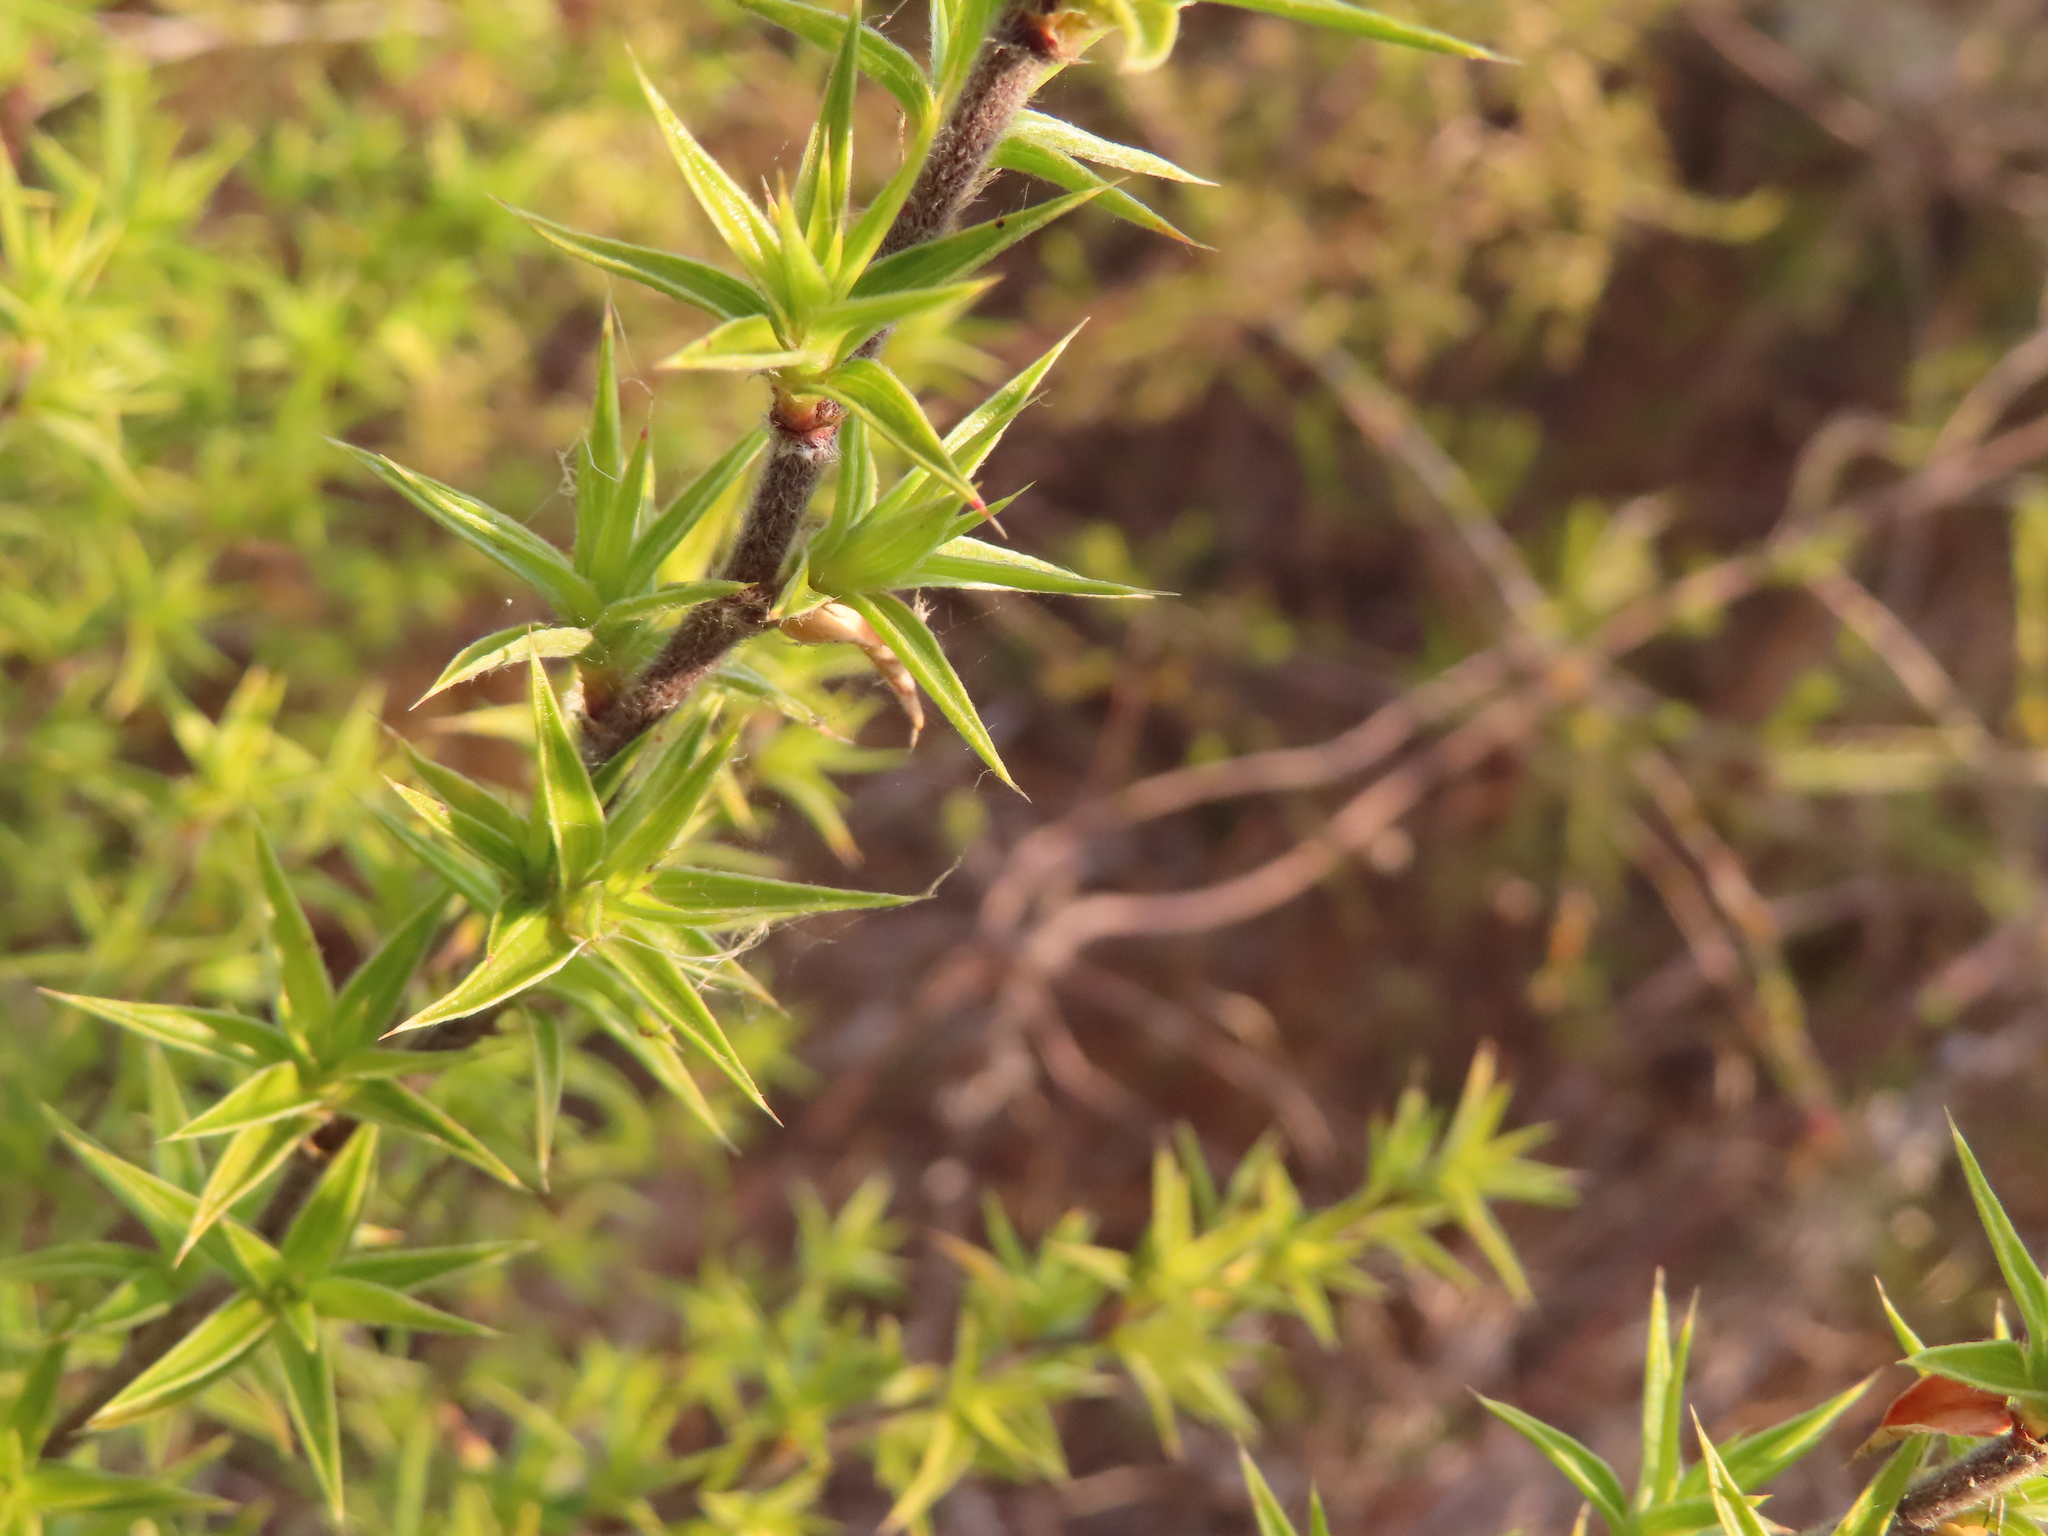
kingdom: Plantae
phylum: Tracheophyta
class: Magnoliopsida
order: Rosales
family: Rosaceae
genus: Cliffortia
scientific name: Cliffortia ruscifolia
